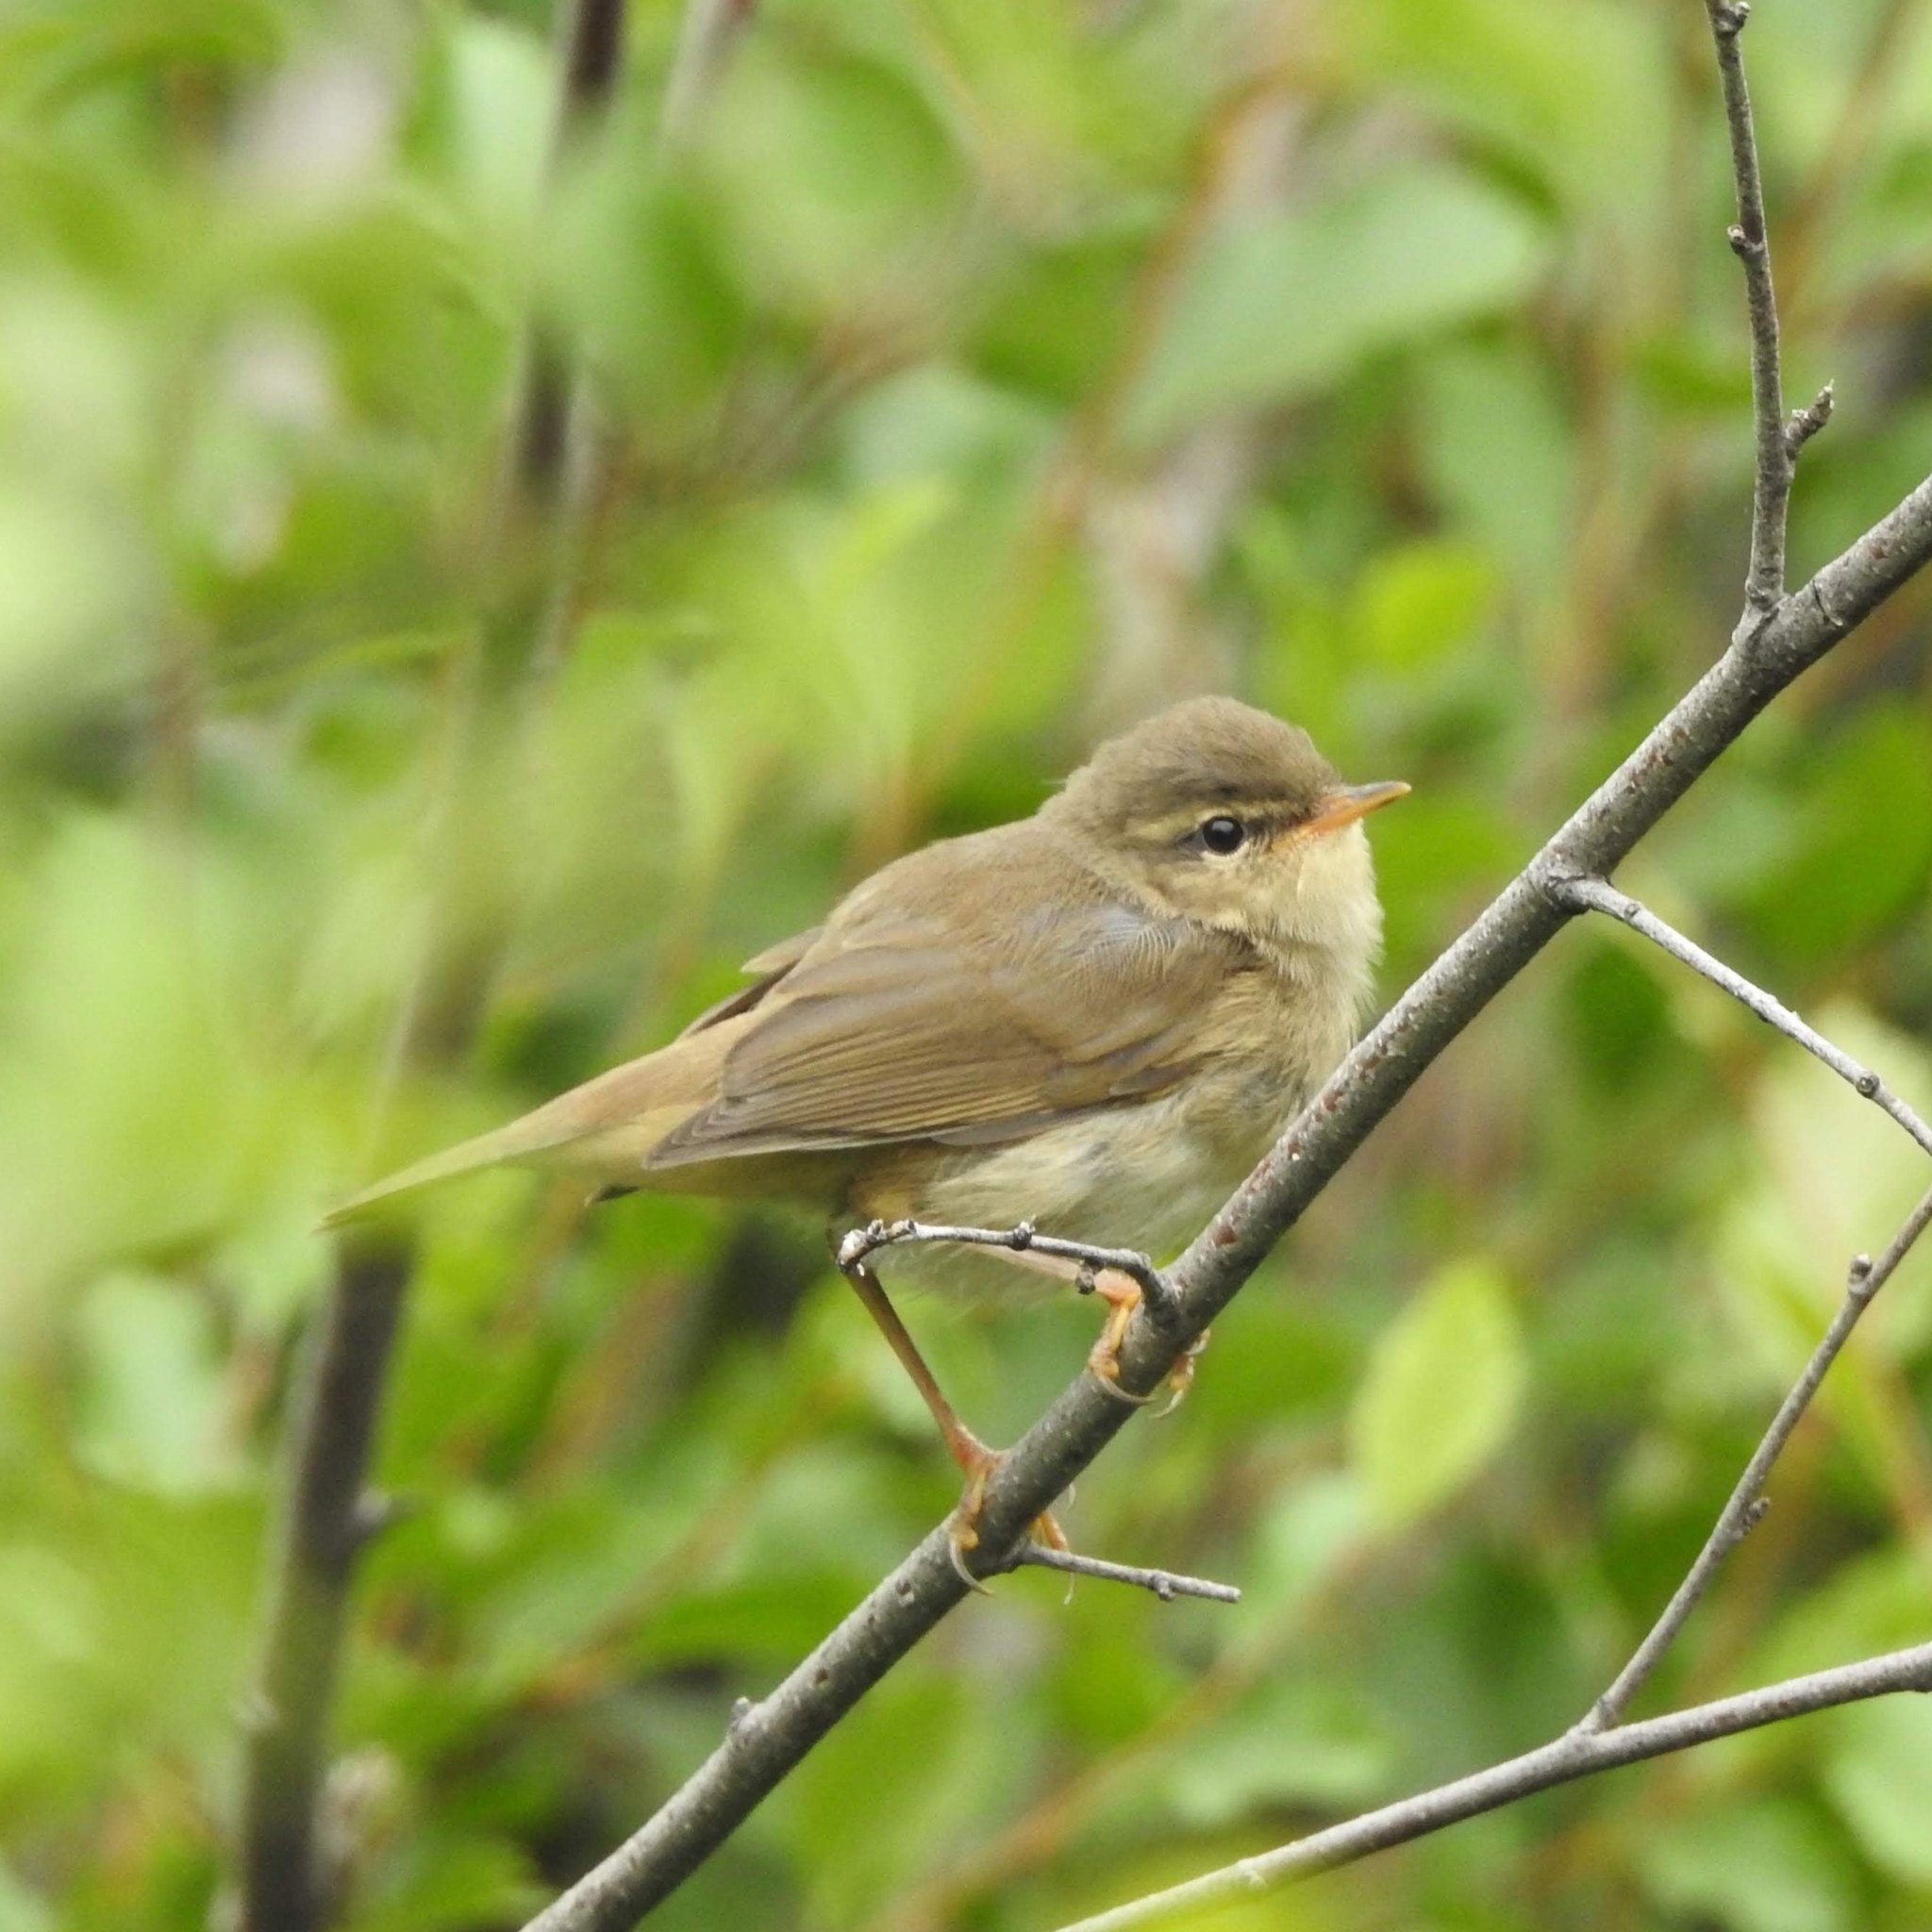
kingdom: Animalia
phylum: Chordata
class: Aves
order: Passeriformes
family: Phylloscopidae
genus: Phylloscopus
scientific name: Phylloscopus fuscatus
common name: Dusky warbler
